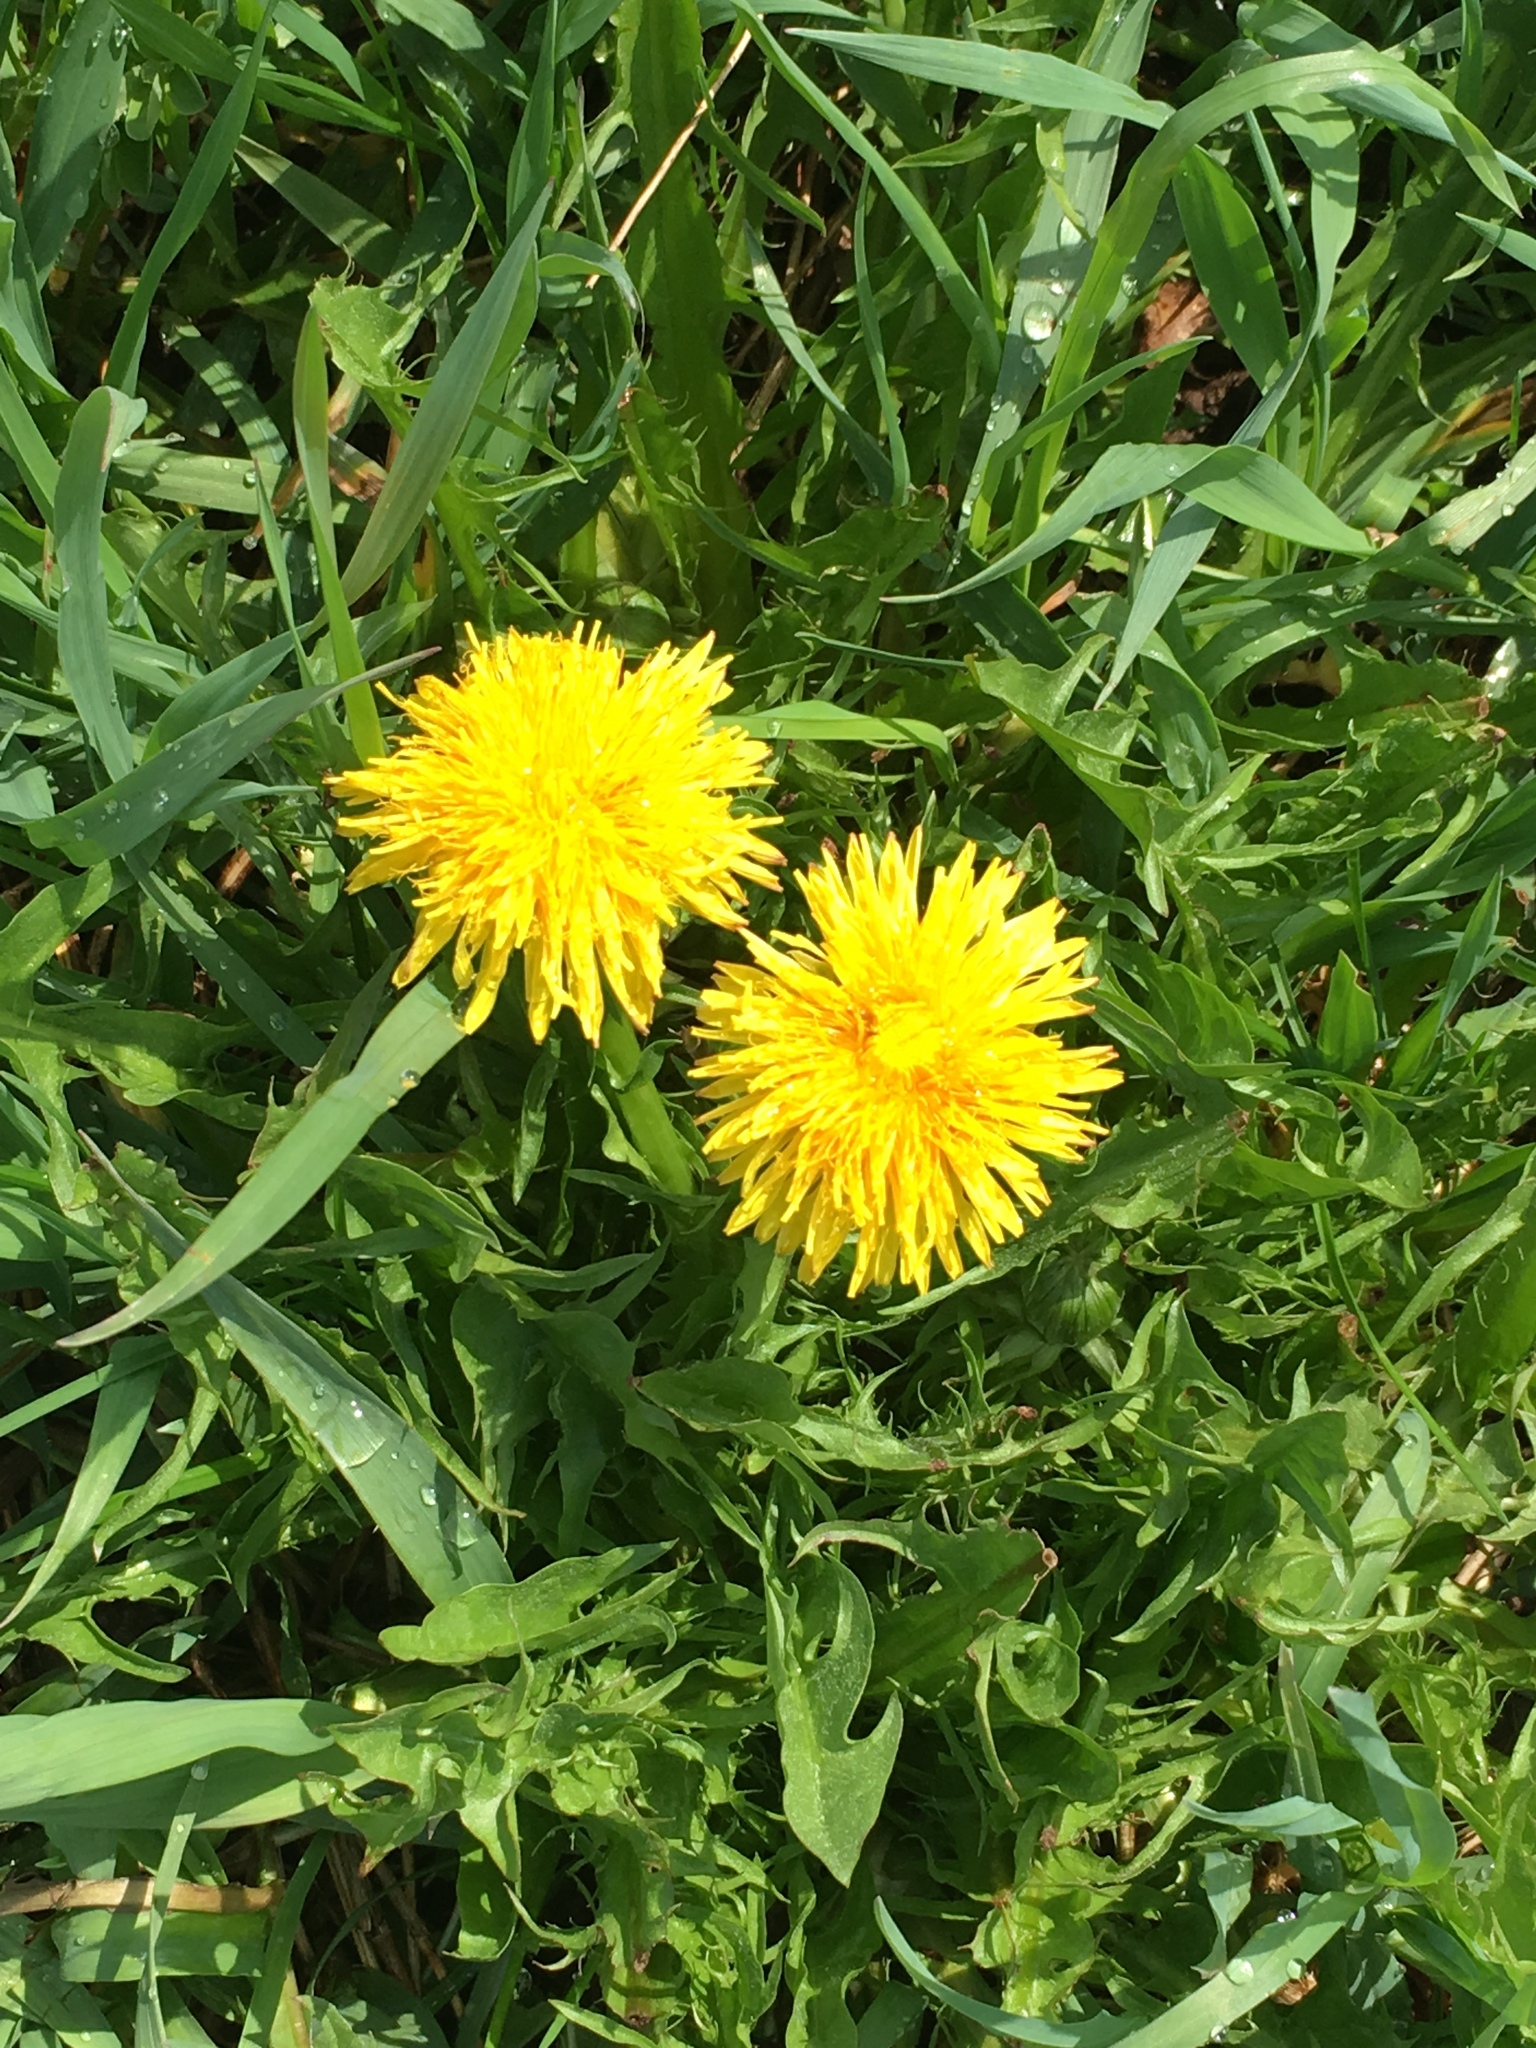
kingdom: Plantae
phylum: Tracheophyta
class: Magnoliopsida
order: Asterales
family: Asteraceae
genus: Taraxacum
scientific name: Taraxacum officinale
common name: Common dandelion
